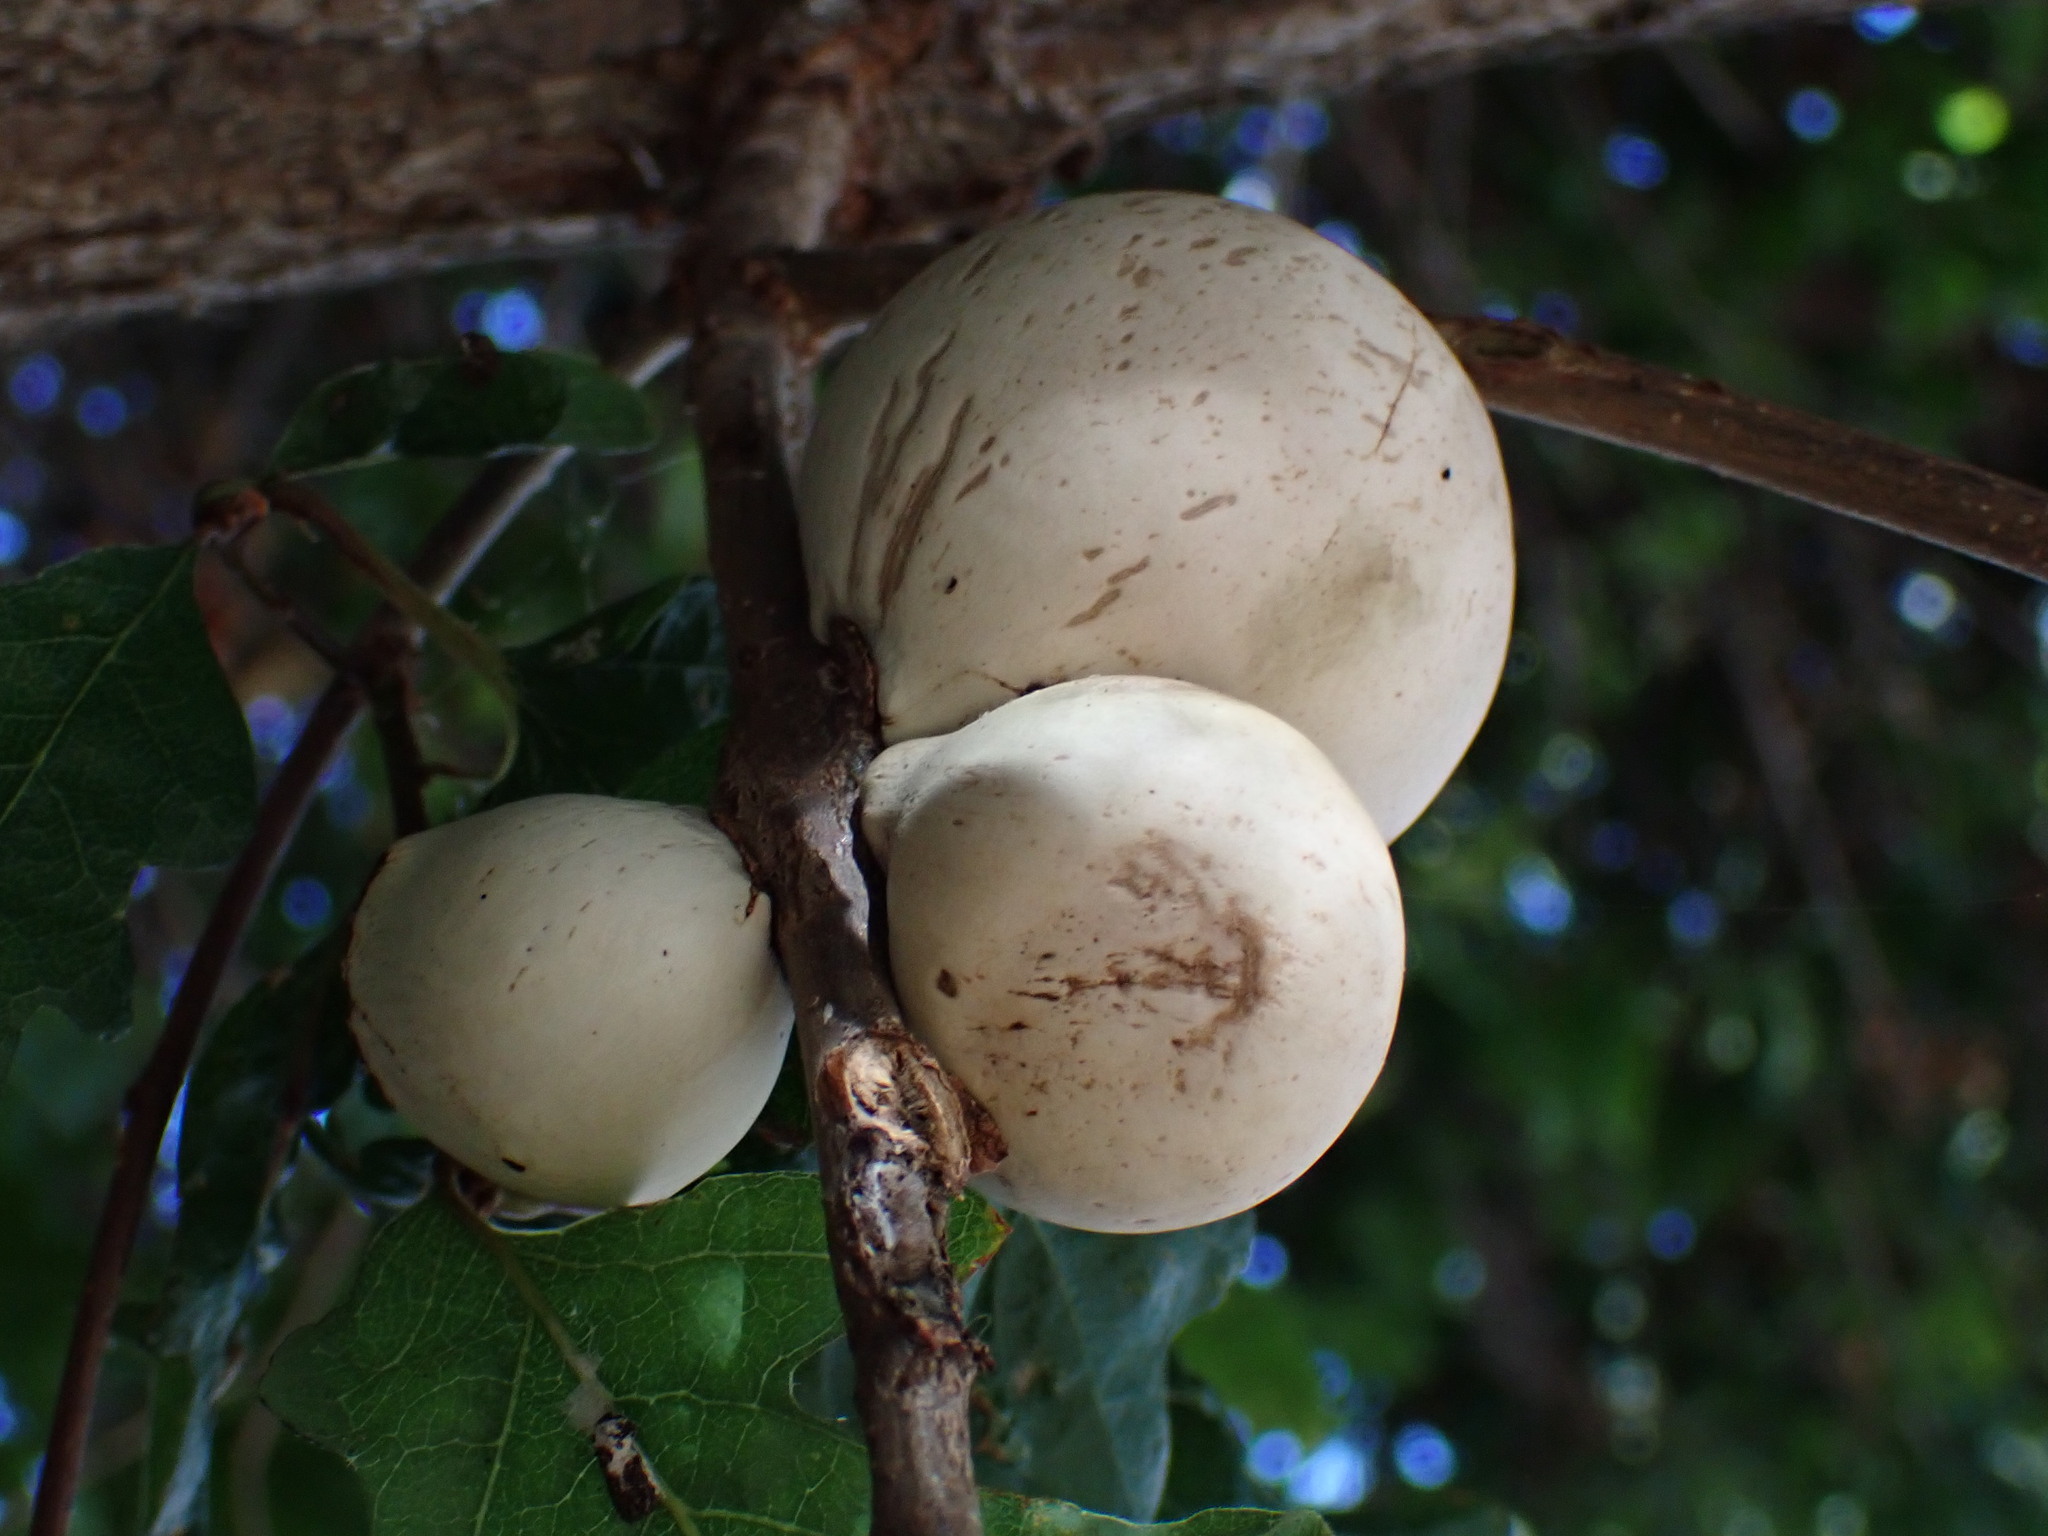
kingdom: Animalia
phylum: Arthropoda
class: Insecta
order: Hymenoptera
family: Cynipidae
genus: Andricus
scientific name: Andricus quercuscalifornicus
